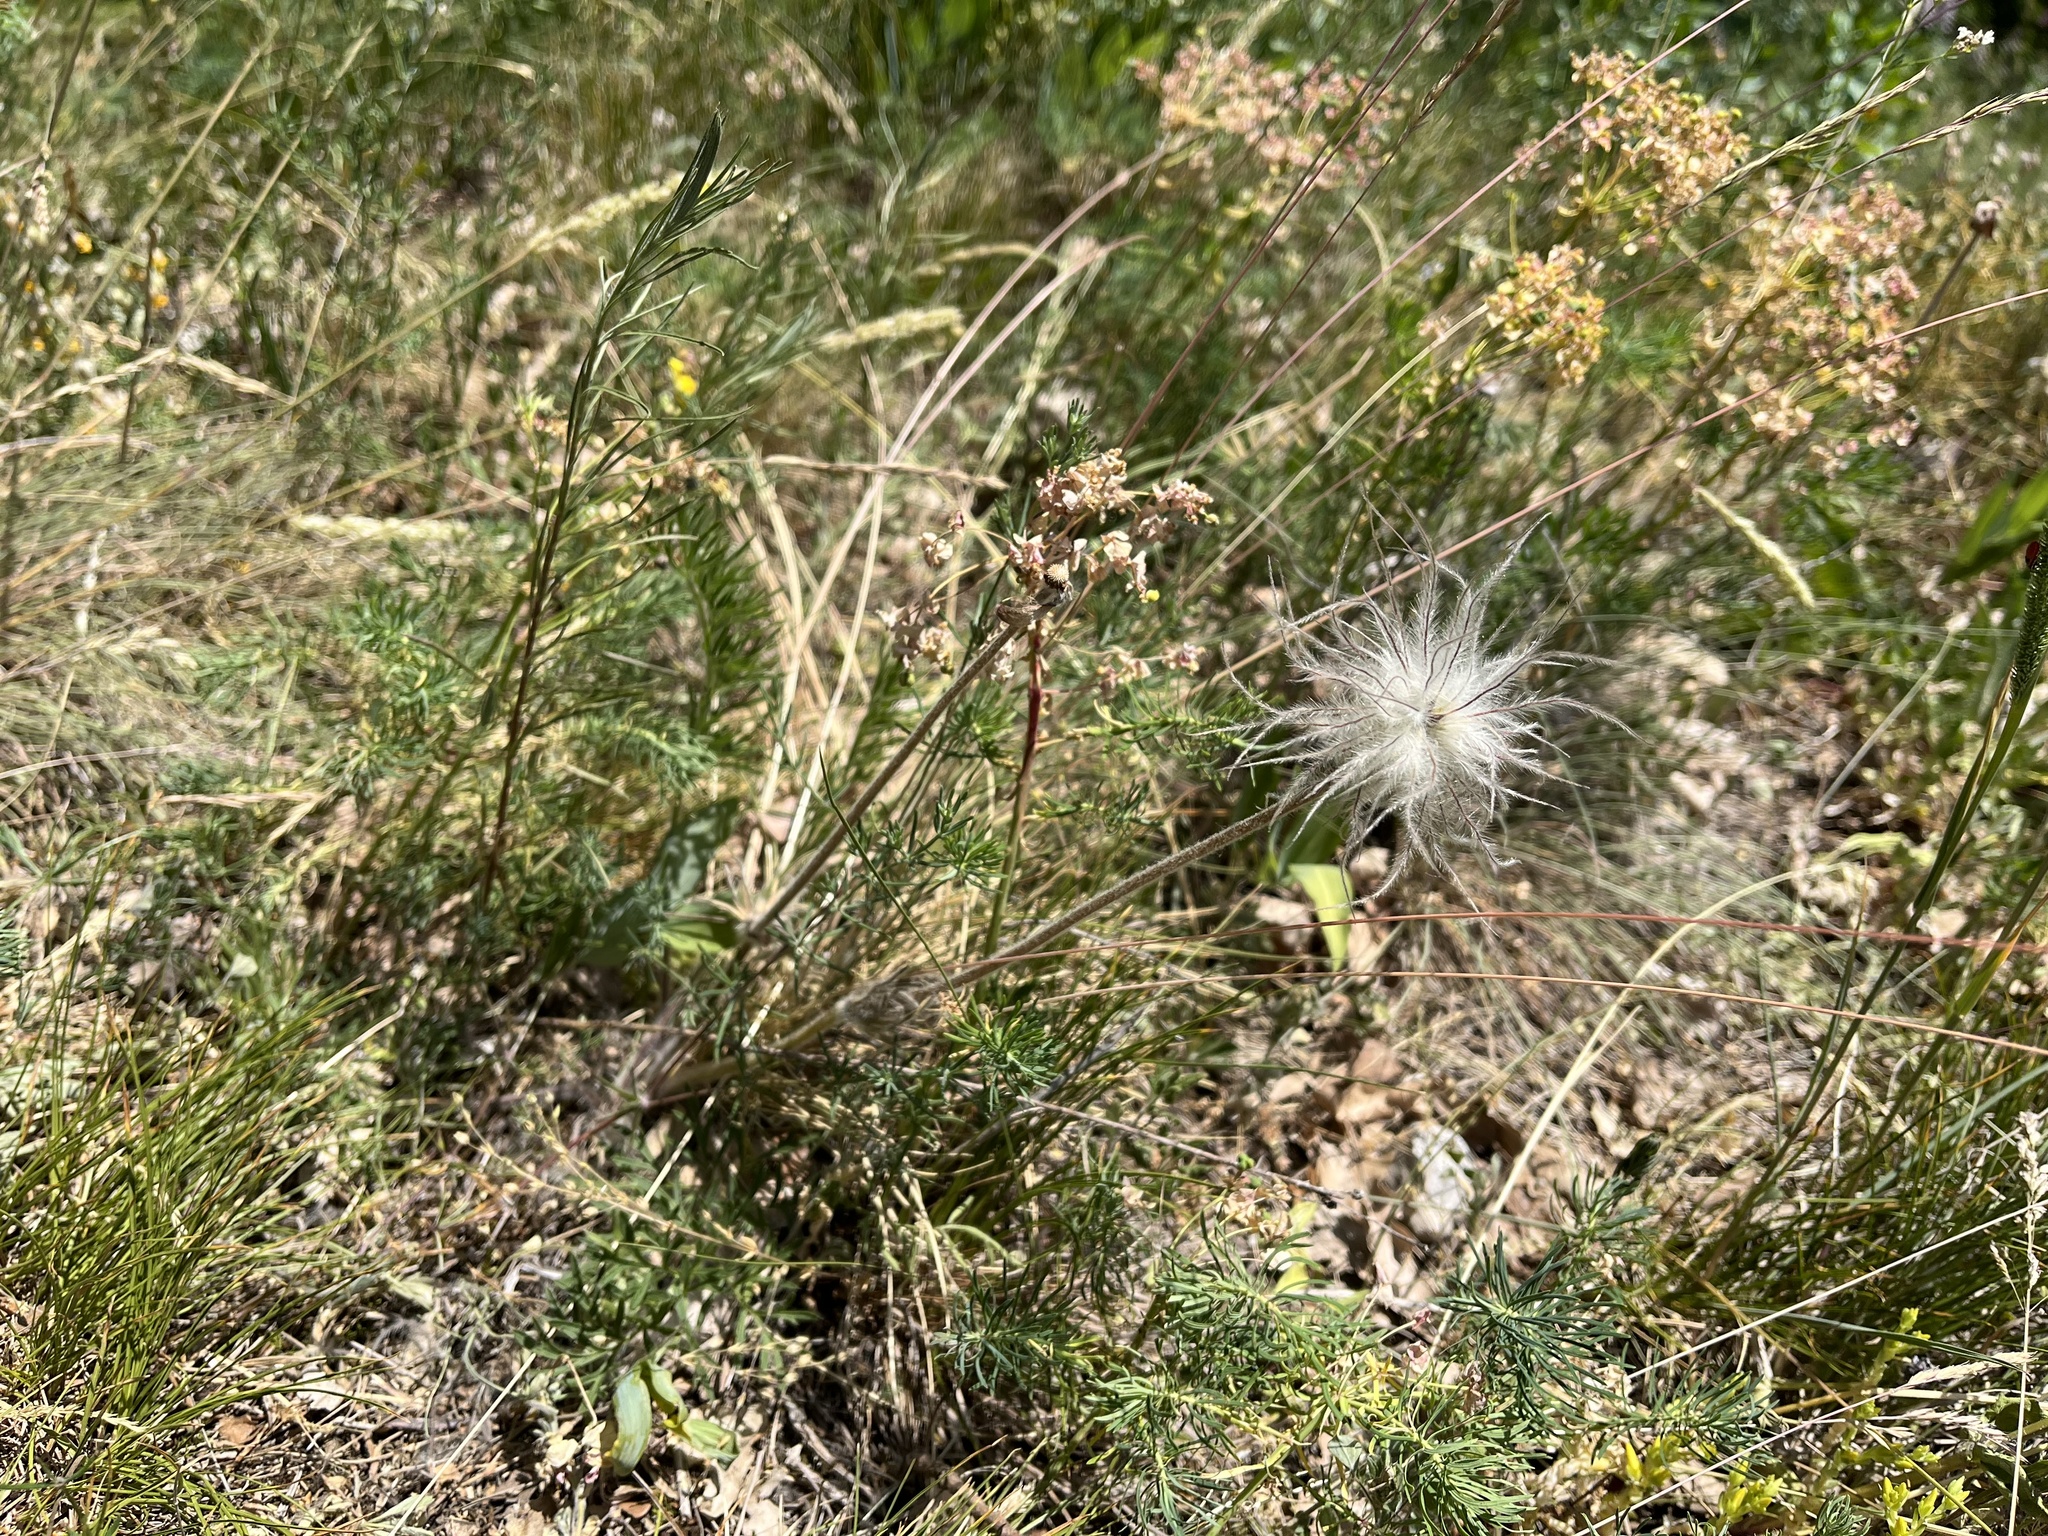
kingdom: Plantae
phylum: Tracheophyta
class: Magnoliopsida
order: Ranunculales
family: Ranunculaceae
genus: Pulsatilla
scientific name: Pulsatilla pratensis
